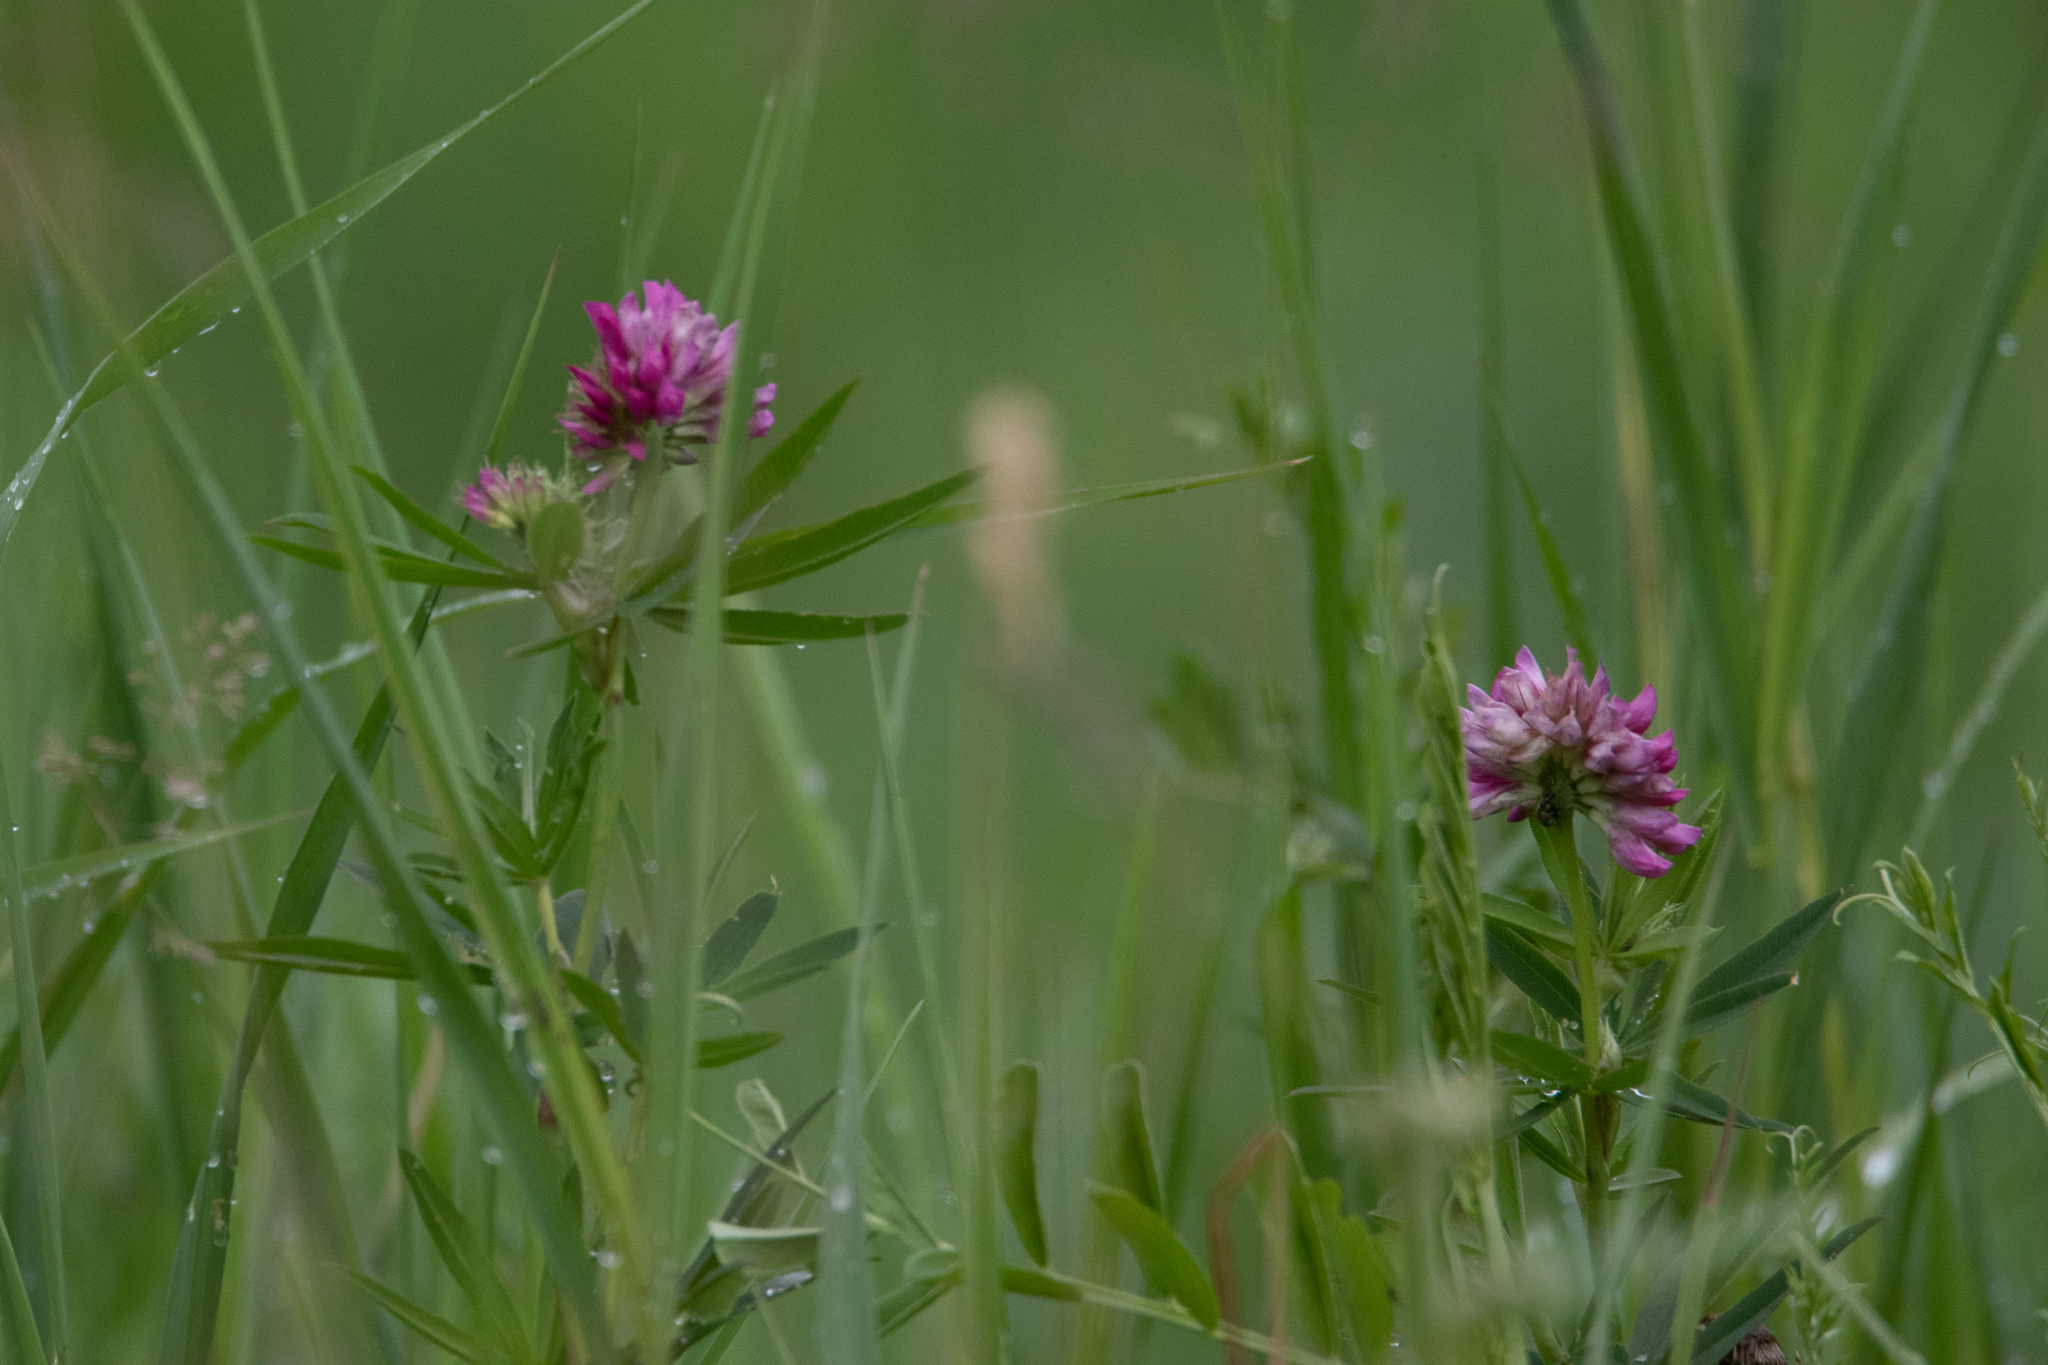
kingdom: Plantae
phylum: Tracheophyta
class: Magnoliopsida
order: Fabales
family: Fabaceae
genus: Trifolium
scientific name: Trifolium lupinaster
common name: Lupine clover
